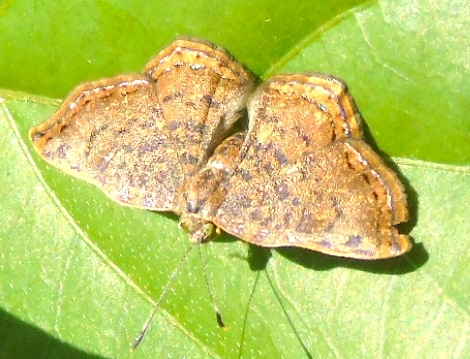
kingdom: Animalia
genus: Caria
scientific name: Caria ino
